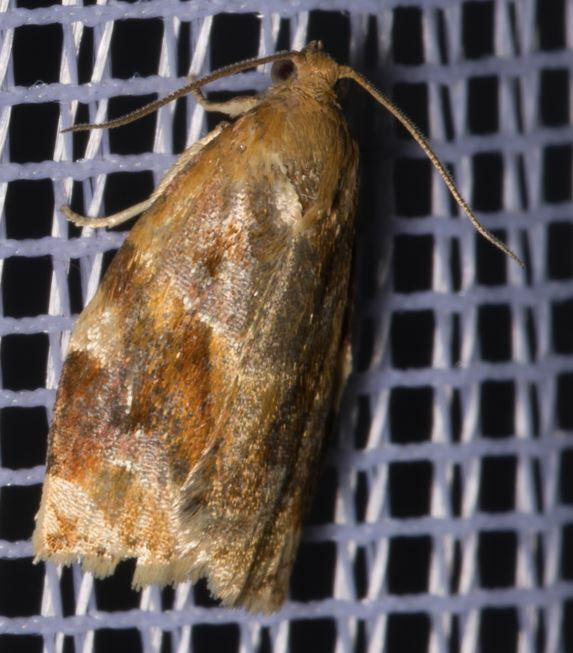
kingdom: Animalia
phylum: Arthropoda
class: Insecta
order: Lepidoptera
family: Tortricidae
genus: Archips
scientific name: Archips xylosteana
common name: Variegated golden tortrix
